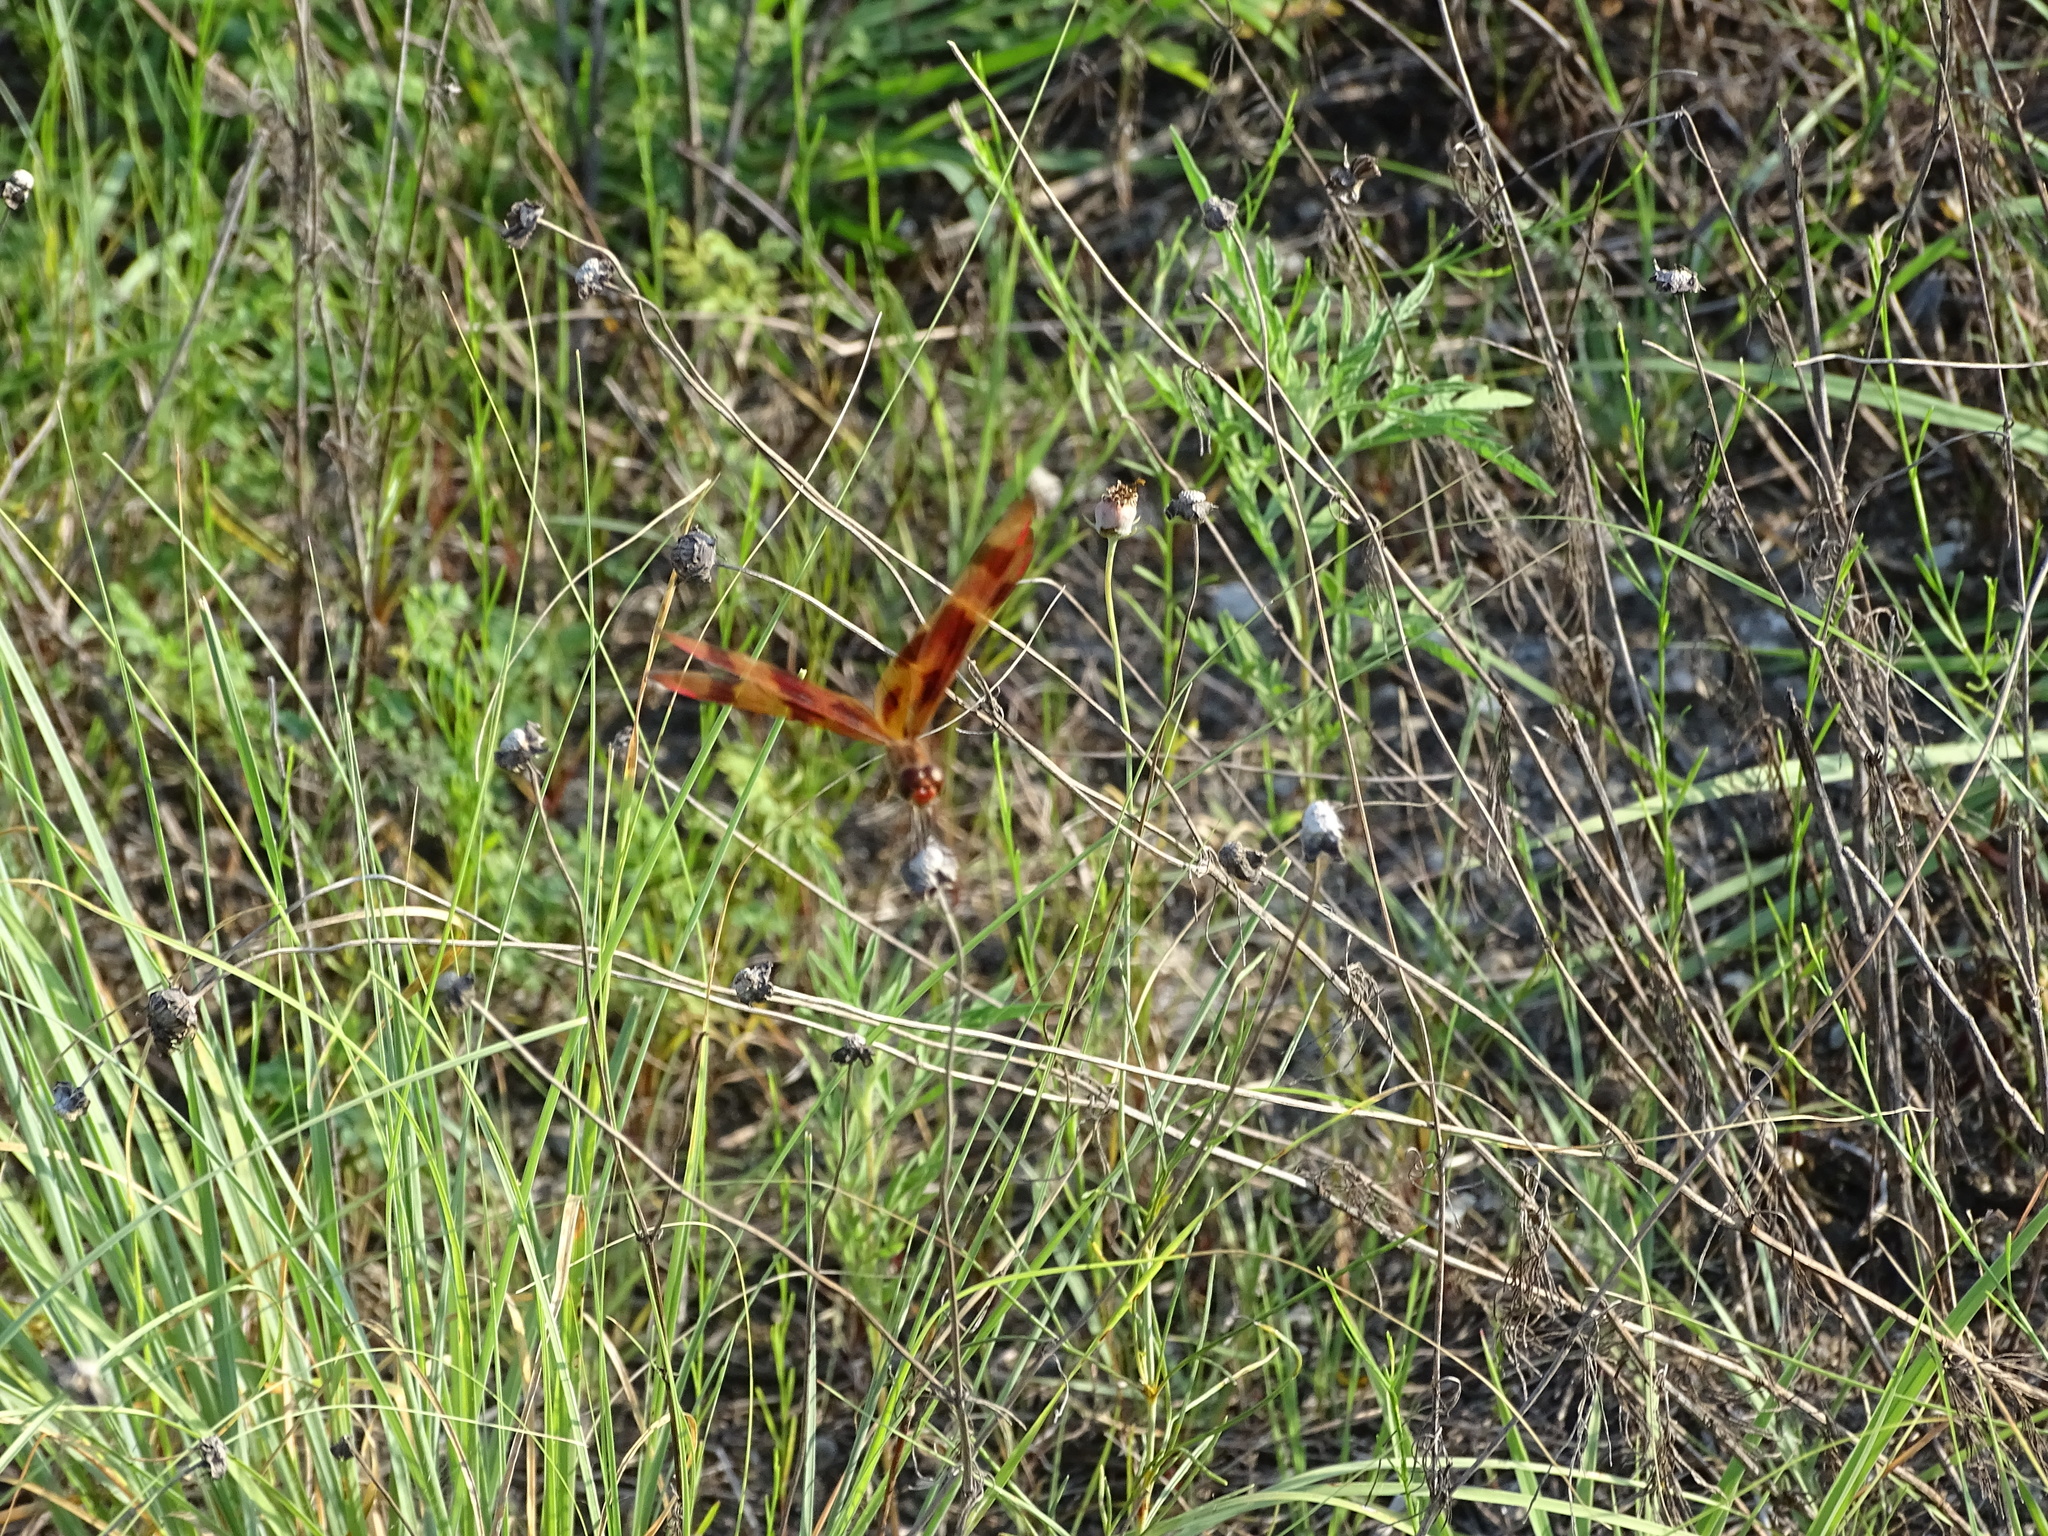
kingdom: Animalia
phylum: Arthropoda
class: Insecta
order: Odonata
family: Libellulidae
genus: Celithemis
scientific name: Celithemis eponina
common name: Halloween pennant
